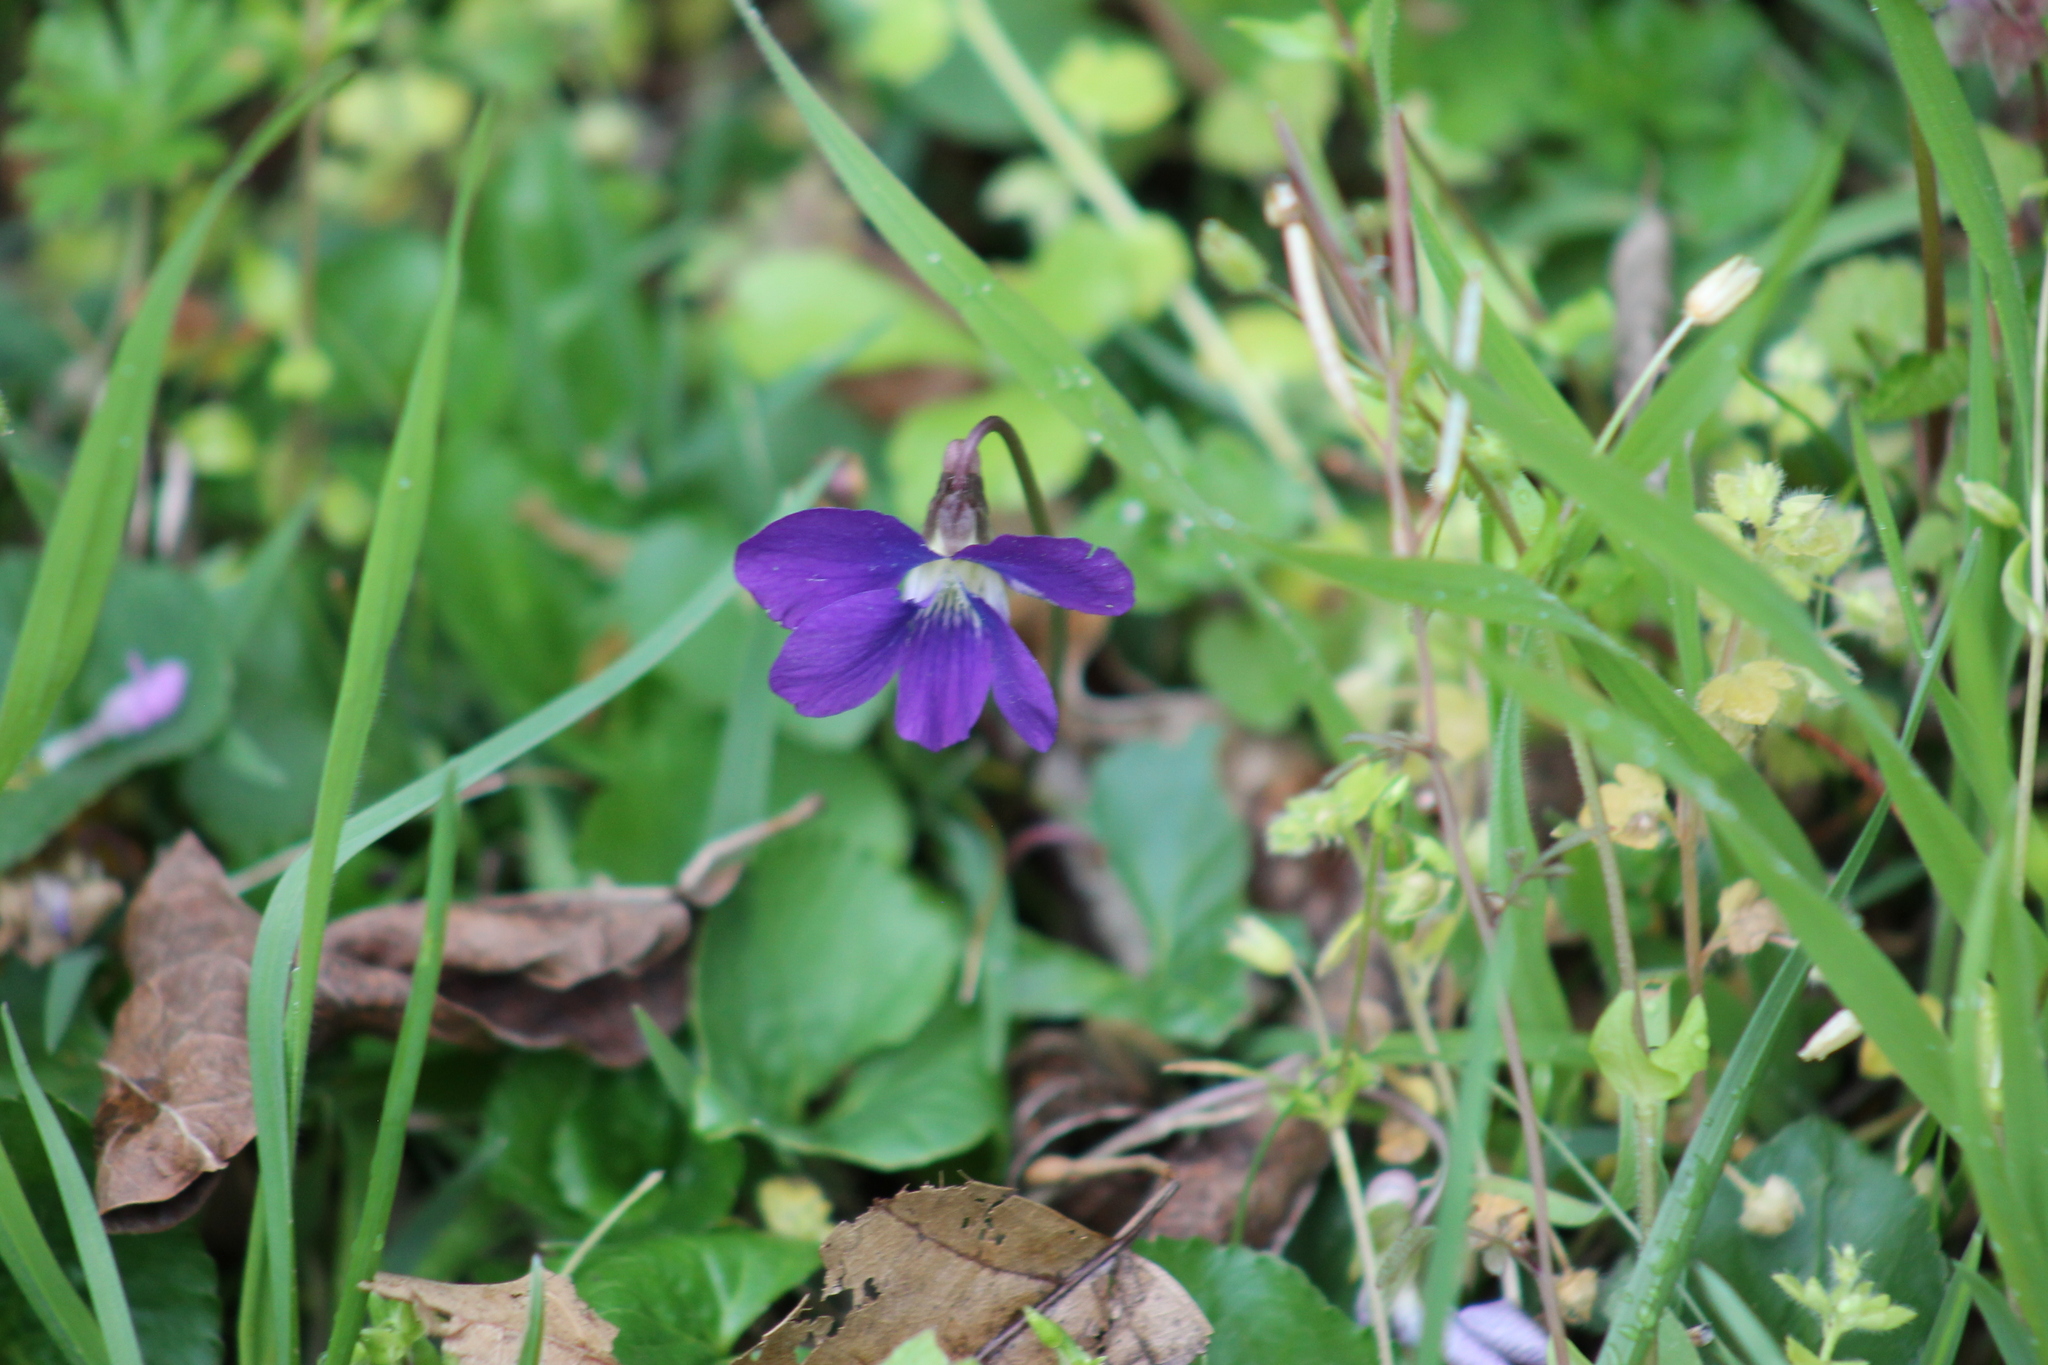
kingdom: Plantae
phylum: Tracheophyta
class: Magnoliopsida
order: Malpighiales
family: Violaceae
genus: Viola
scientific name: Viola sororia
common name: Dooryard violet
